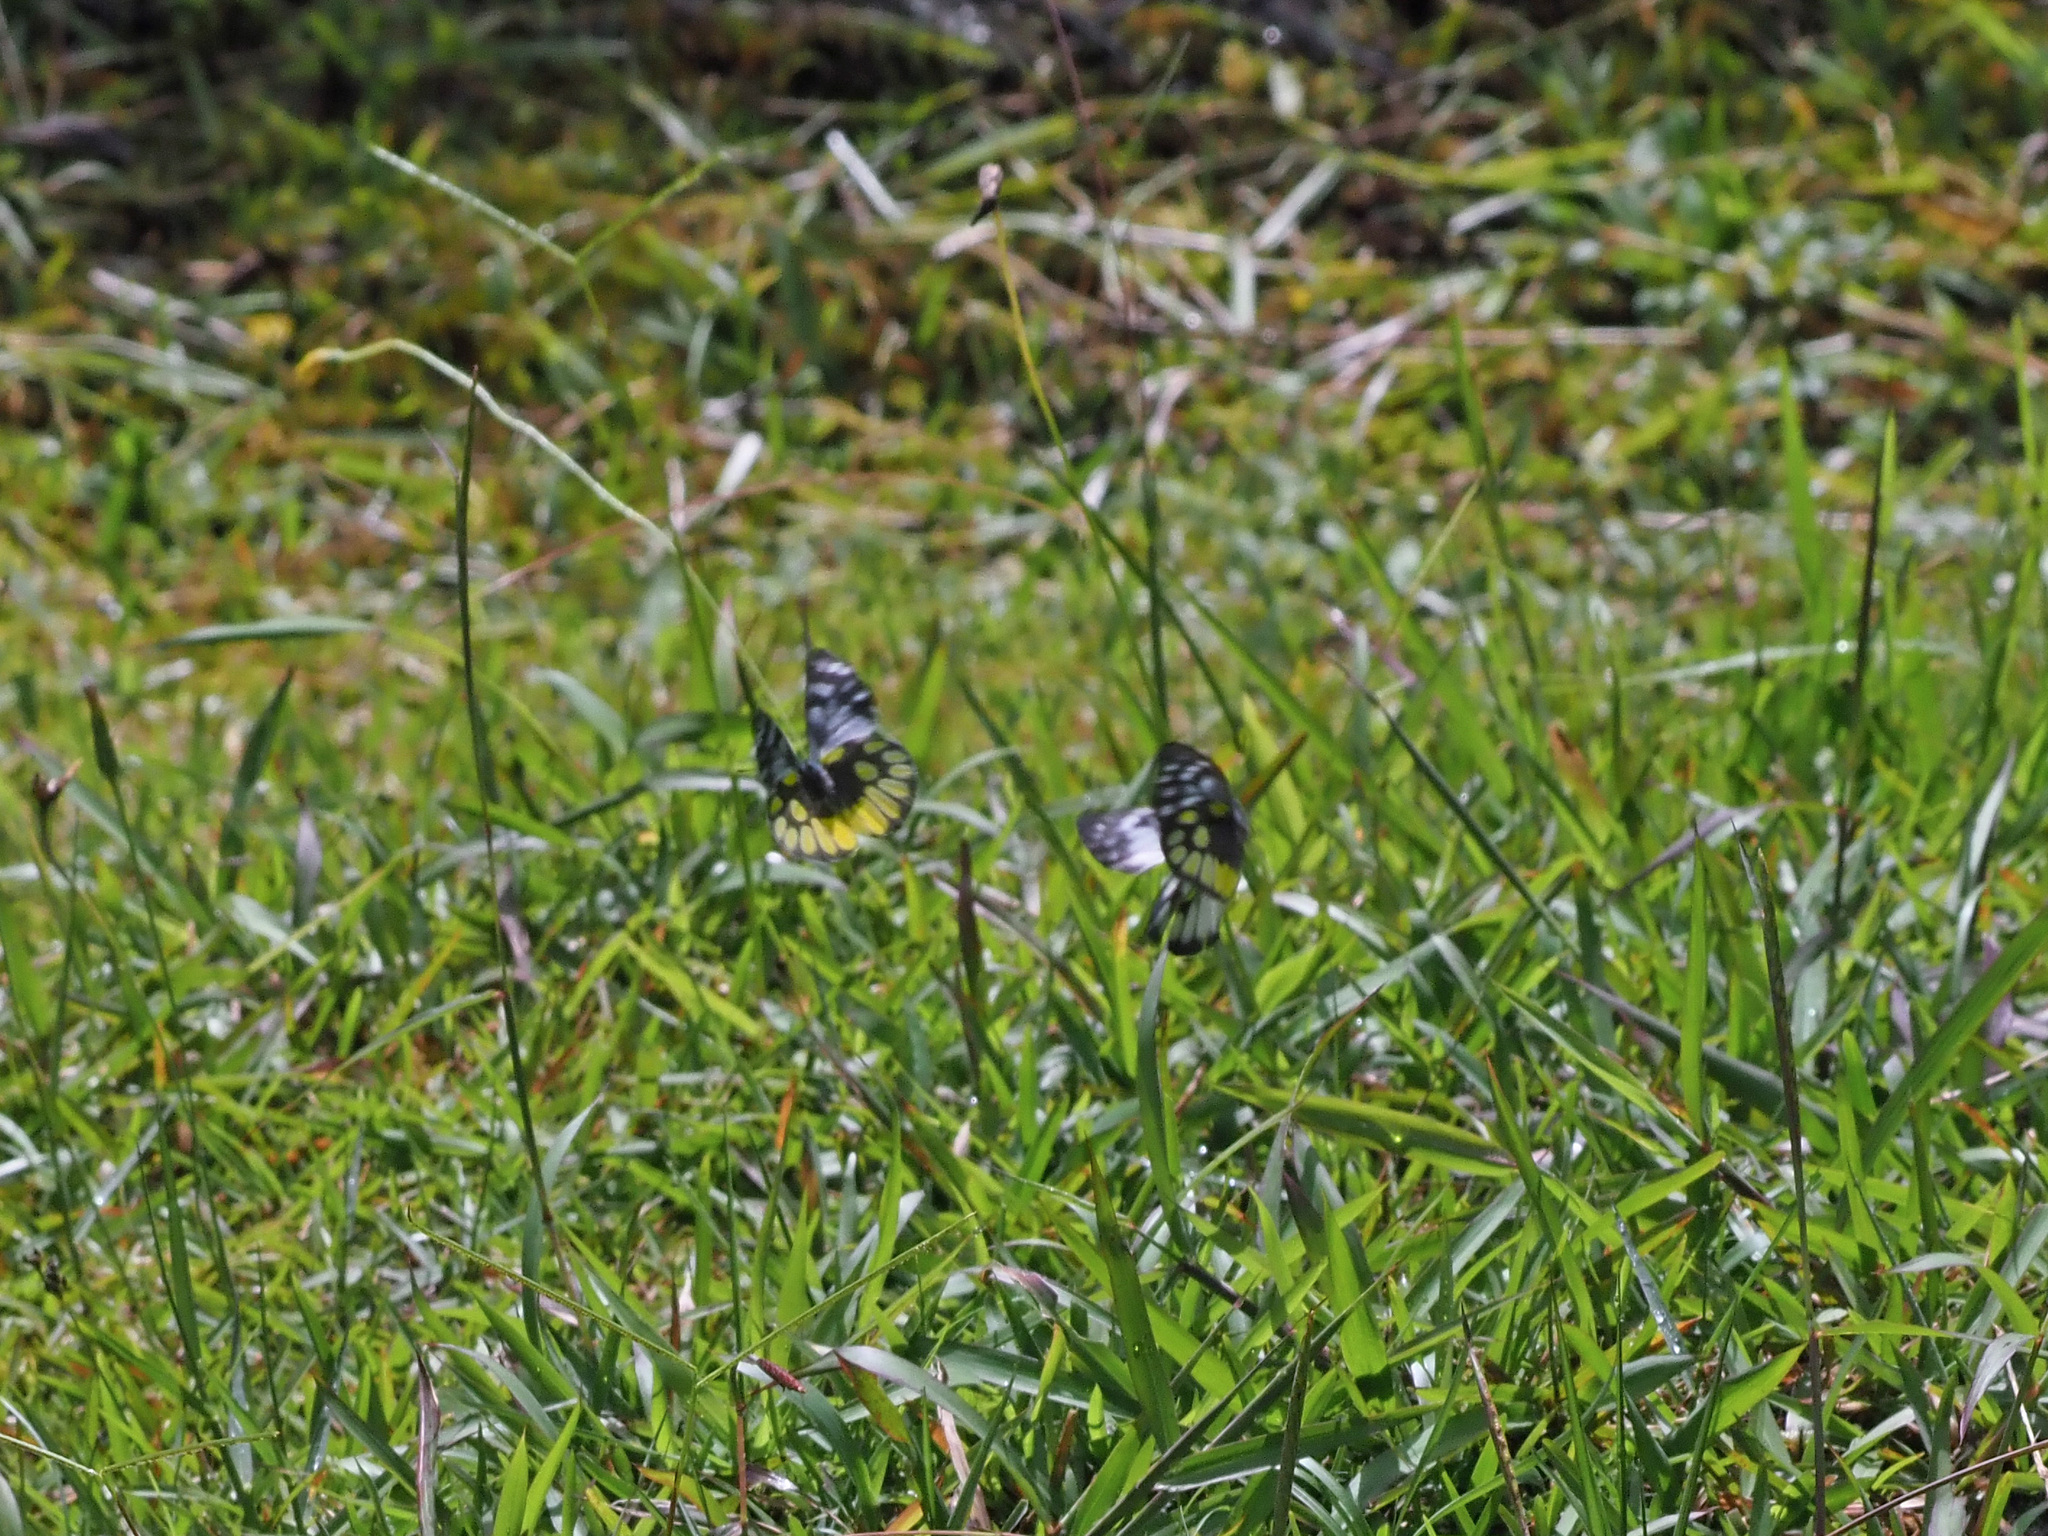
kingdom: Animalia
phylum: Arthropoda
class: Insecta
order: Lepidoptera
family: Pieridae
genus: Delias
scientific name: Delias cinerascens
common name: Kinabalu jezebel
